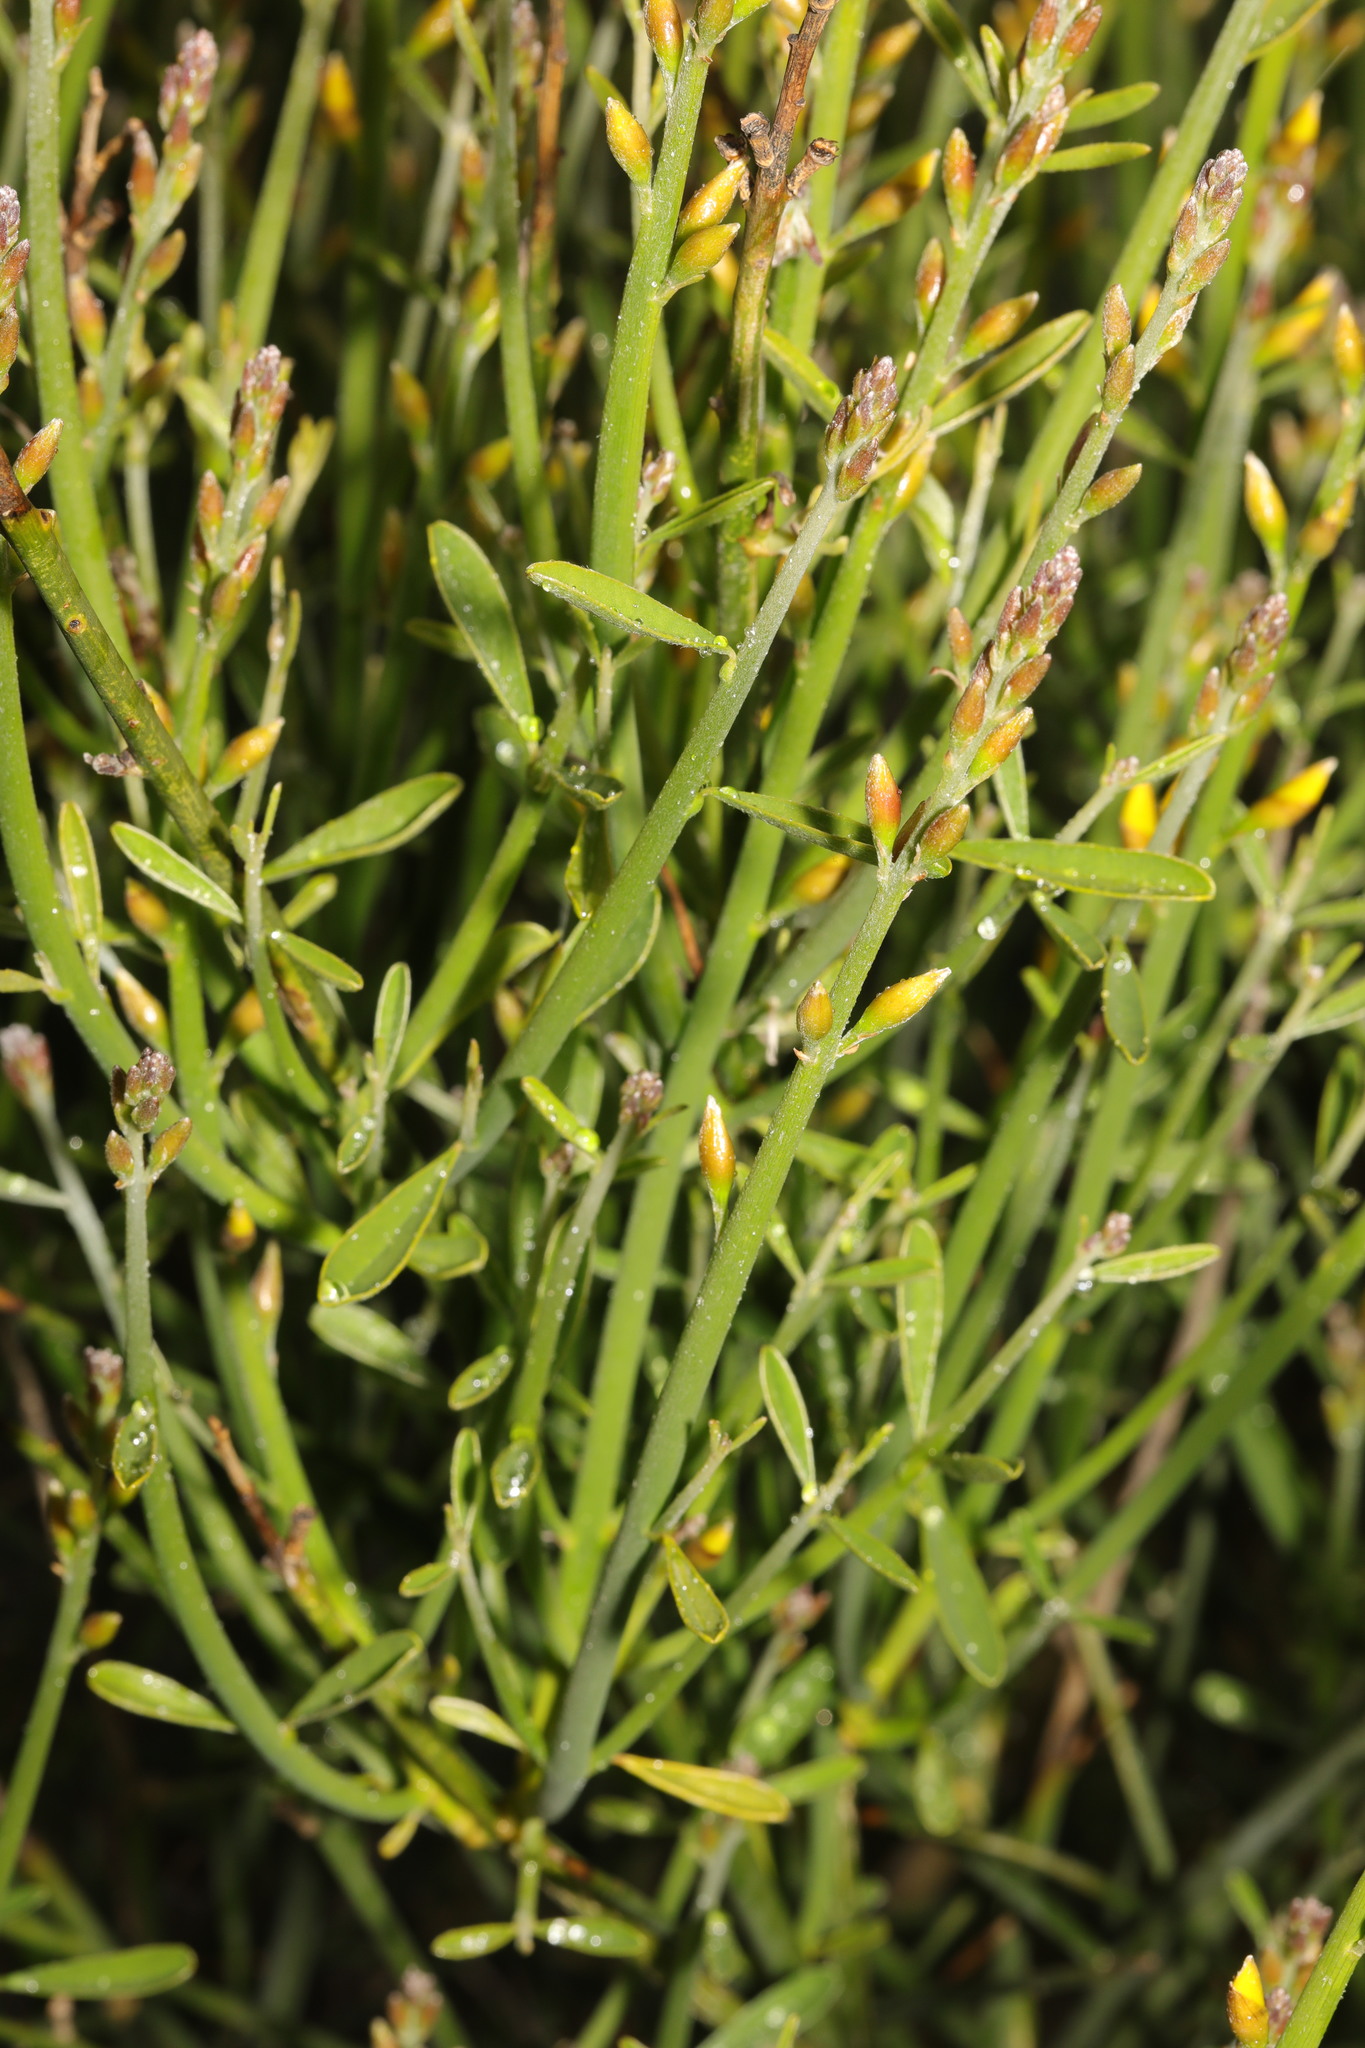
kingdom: Plantae
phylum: Tracheophyta
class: Magnoliopsida
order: Fabales
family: Fabaceae
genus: Spartium
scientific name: Spartium junceum
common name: Spanish broom
